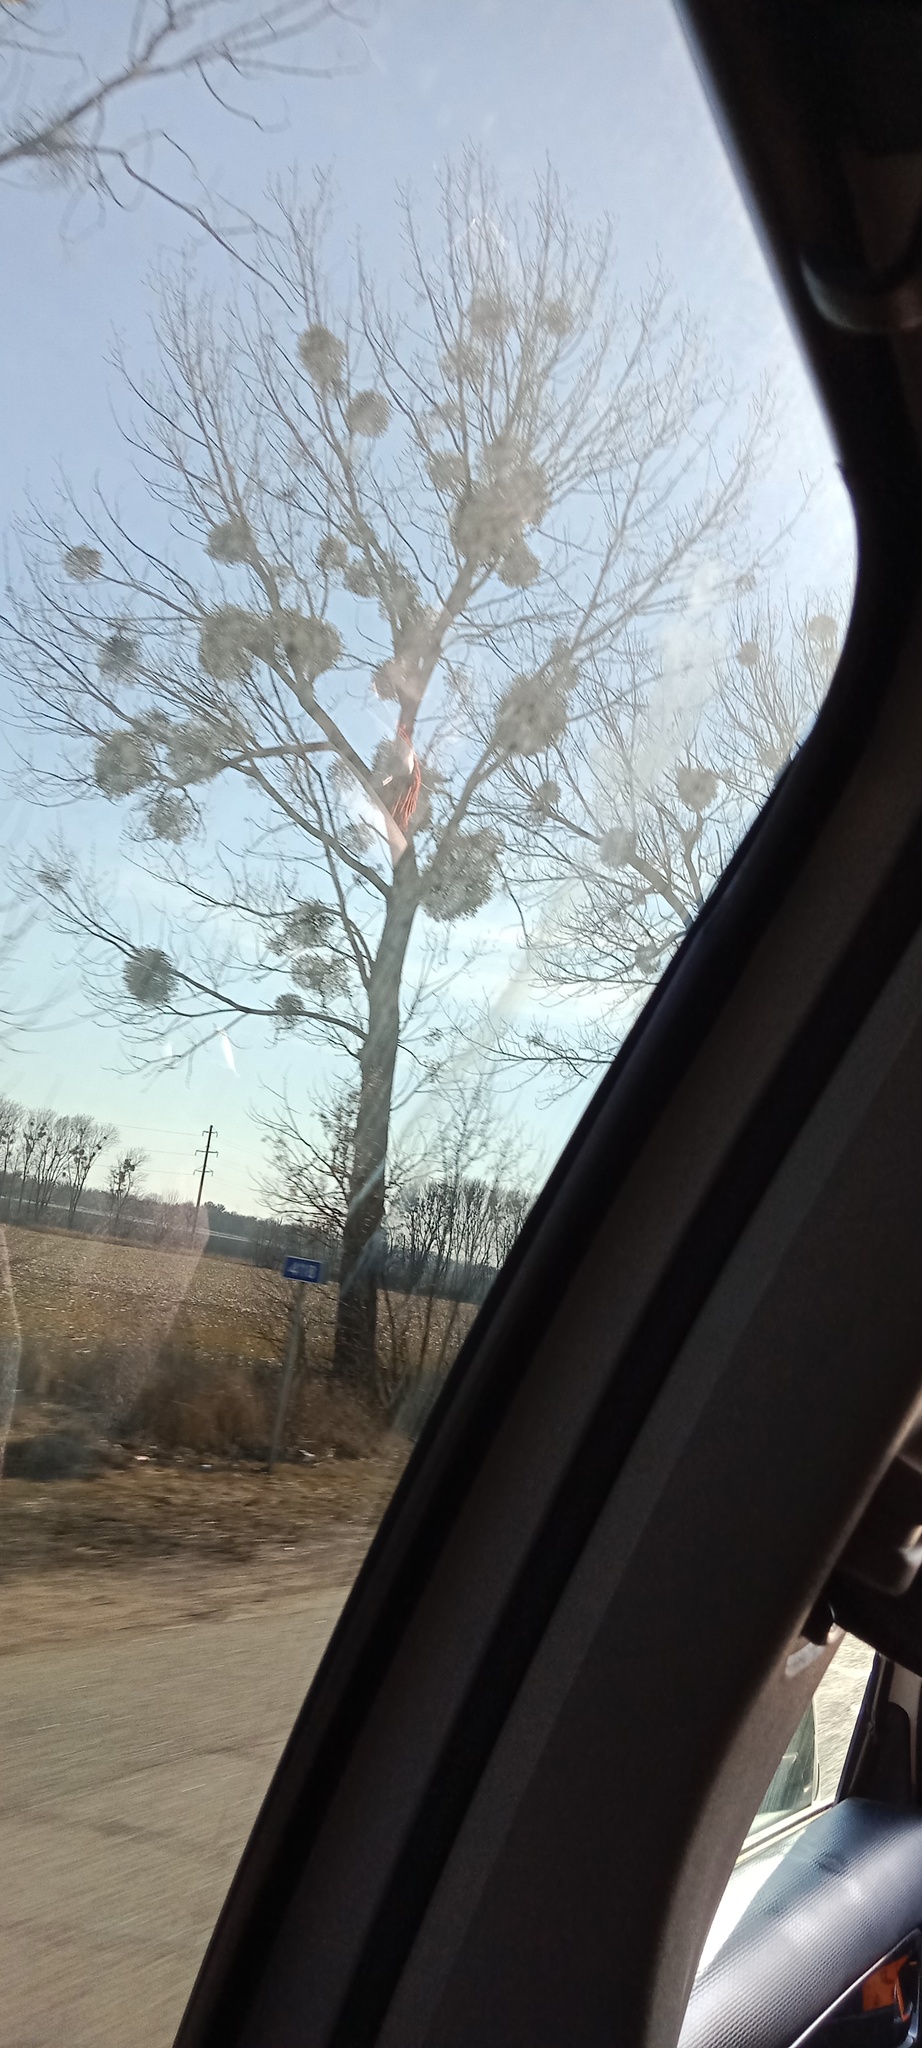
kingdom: Plantae
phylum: Tracheophyta
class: Magnoliopsida
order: Santalales
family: Viscaceae
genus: Viscum
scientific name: Viscum album
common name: Mistletoe
